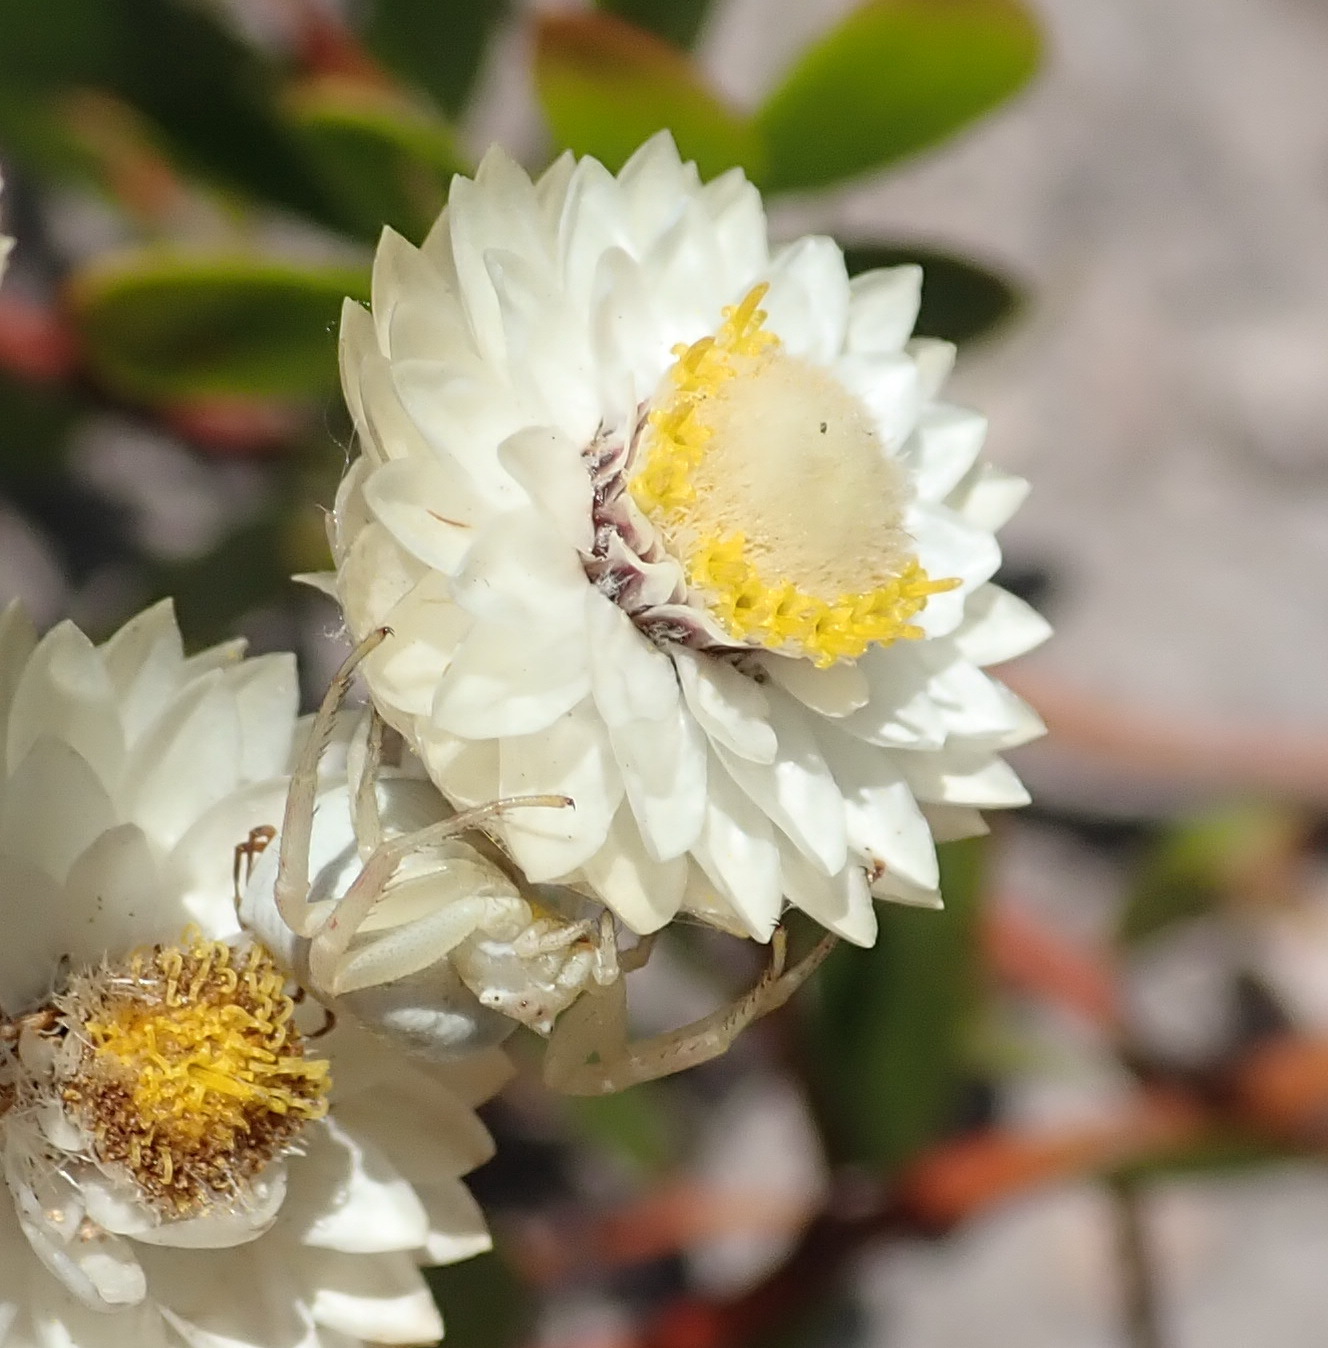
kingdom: Plantae
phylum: Tracheophyta
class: Magnoliopsida
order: Asterales
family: Asteraceae
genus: Achyranthemum
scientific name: Achyranthemum paniculatum
